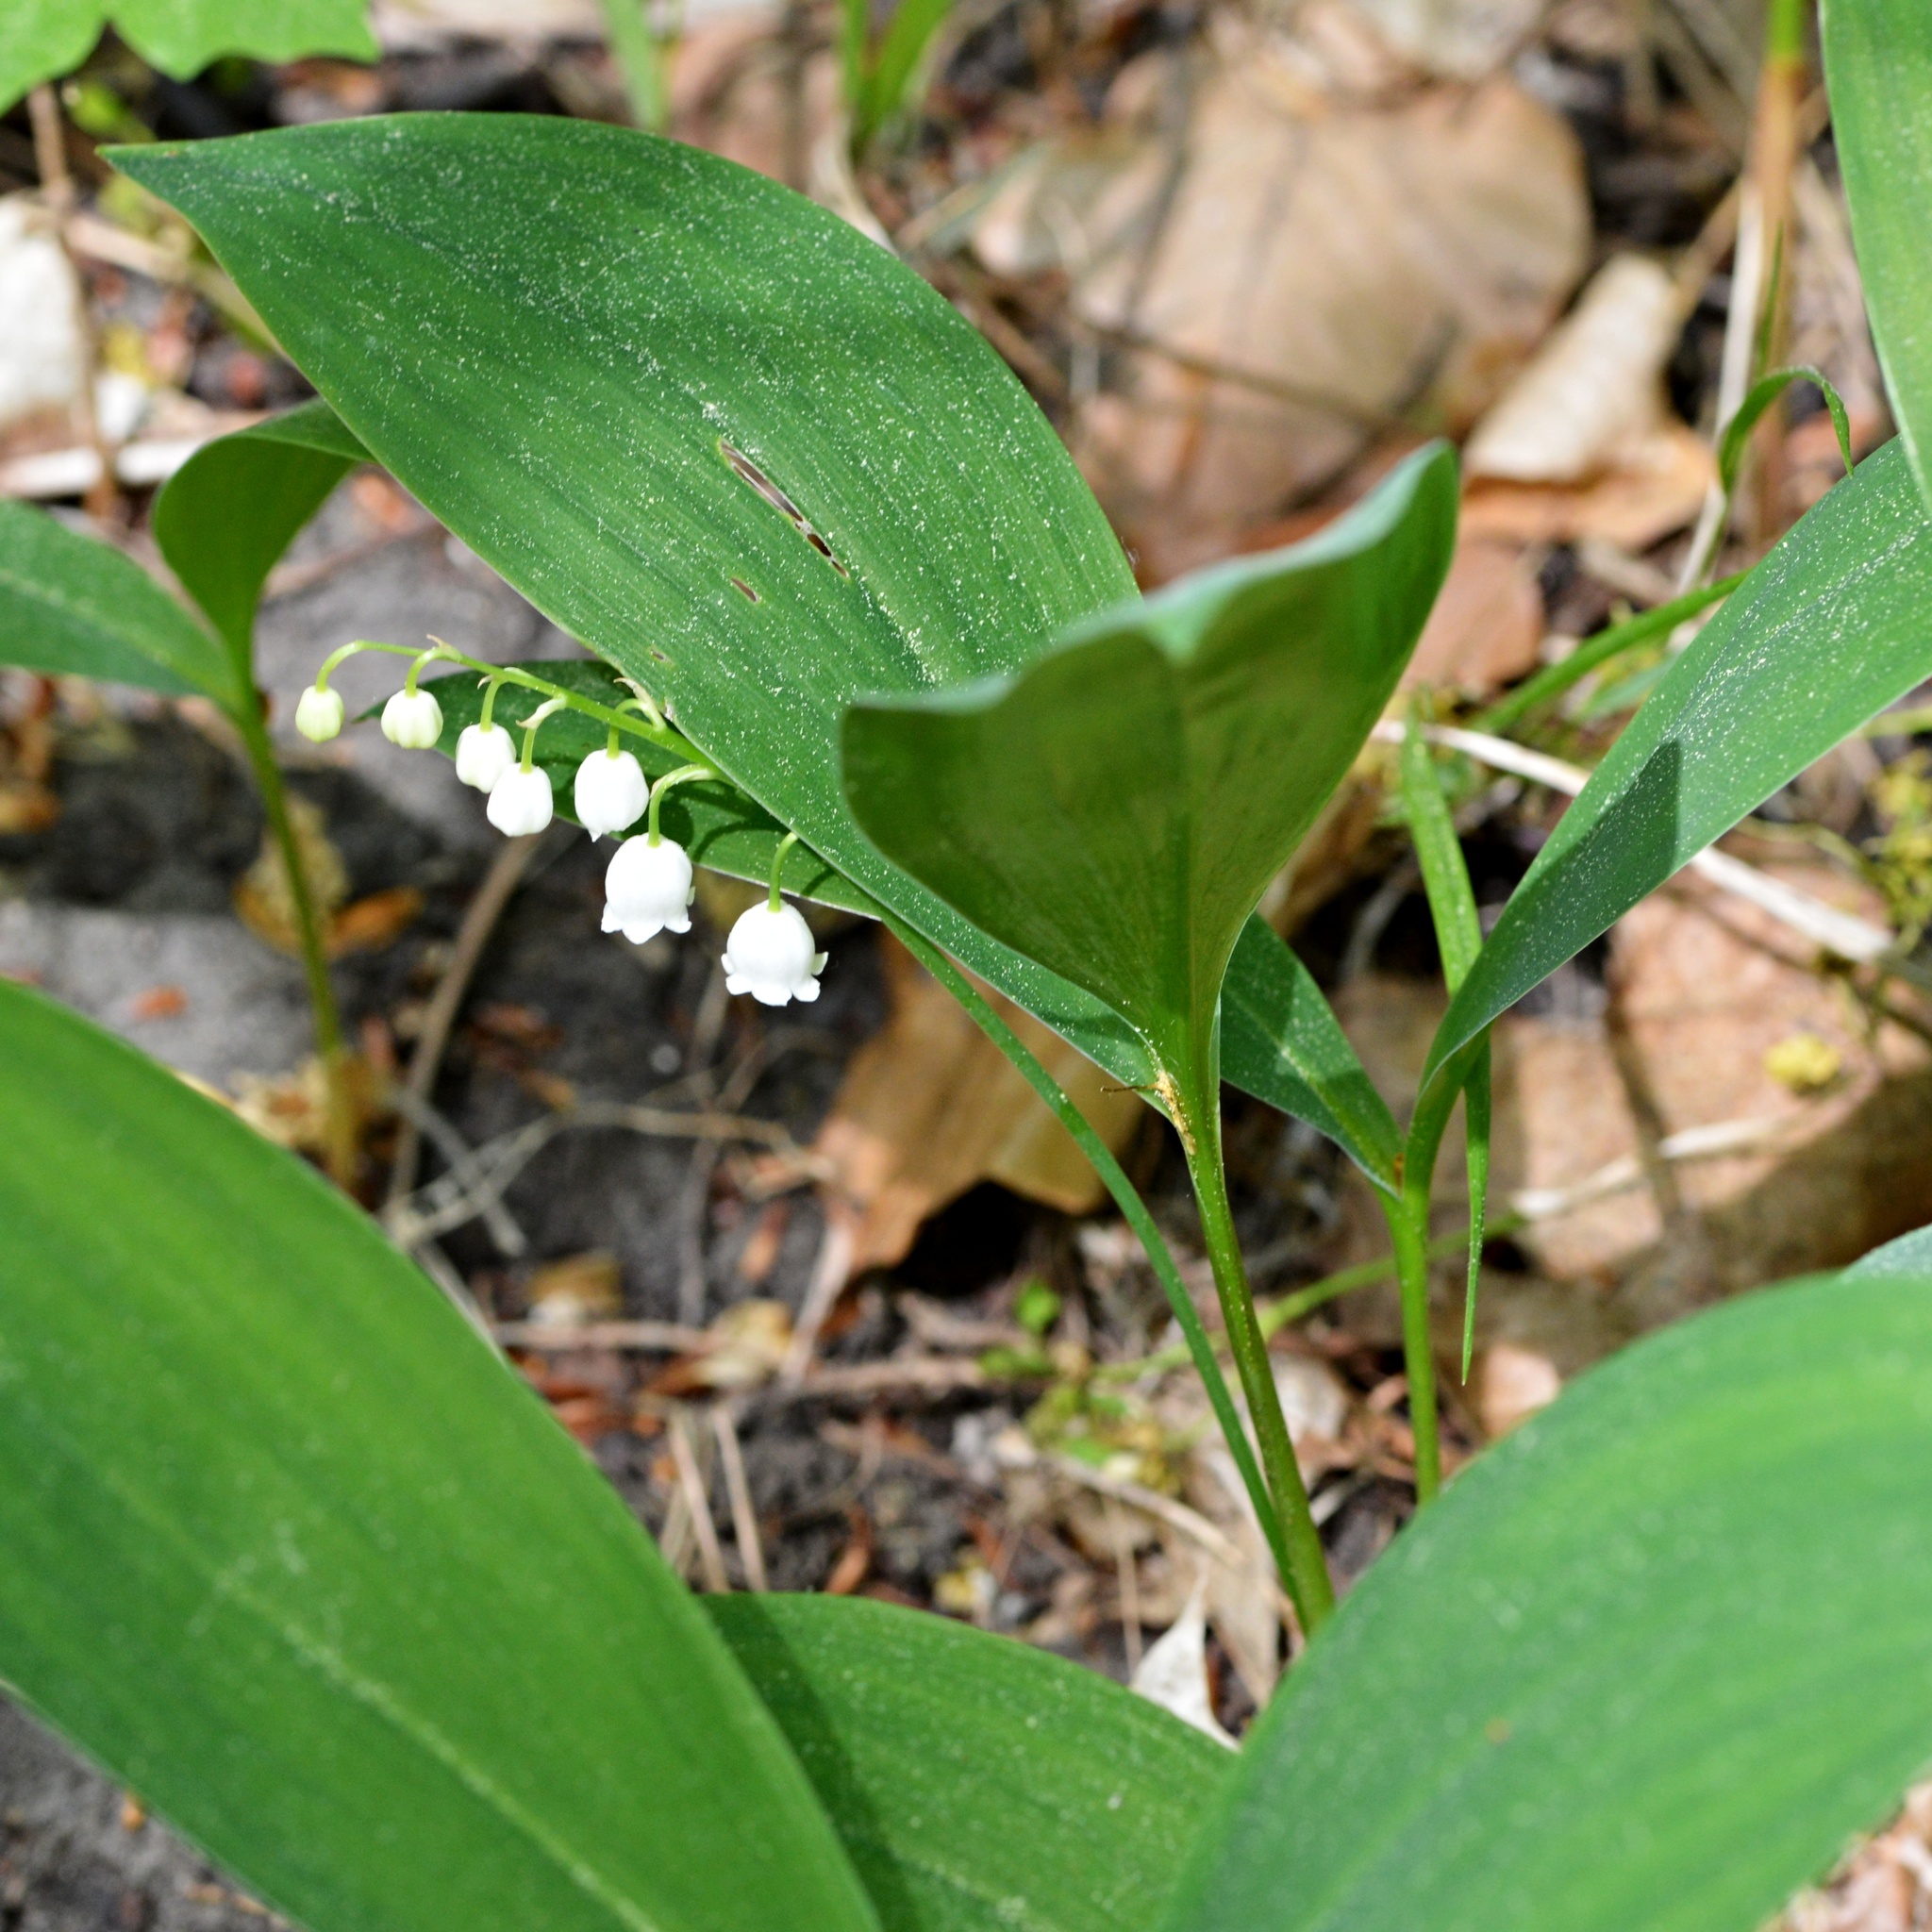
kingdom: Plantae
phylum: Tracheophyta
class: Liliopsida
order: Asparagales
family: Asparagaceae
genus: Convallaria
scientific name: Convallaria majalis
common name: Lily-of-the-valley
